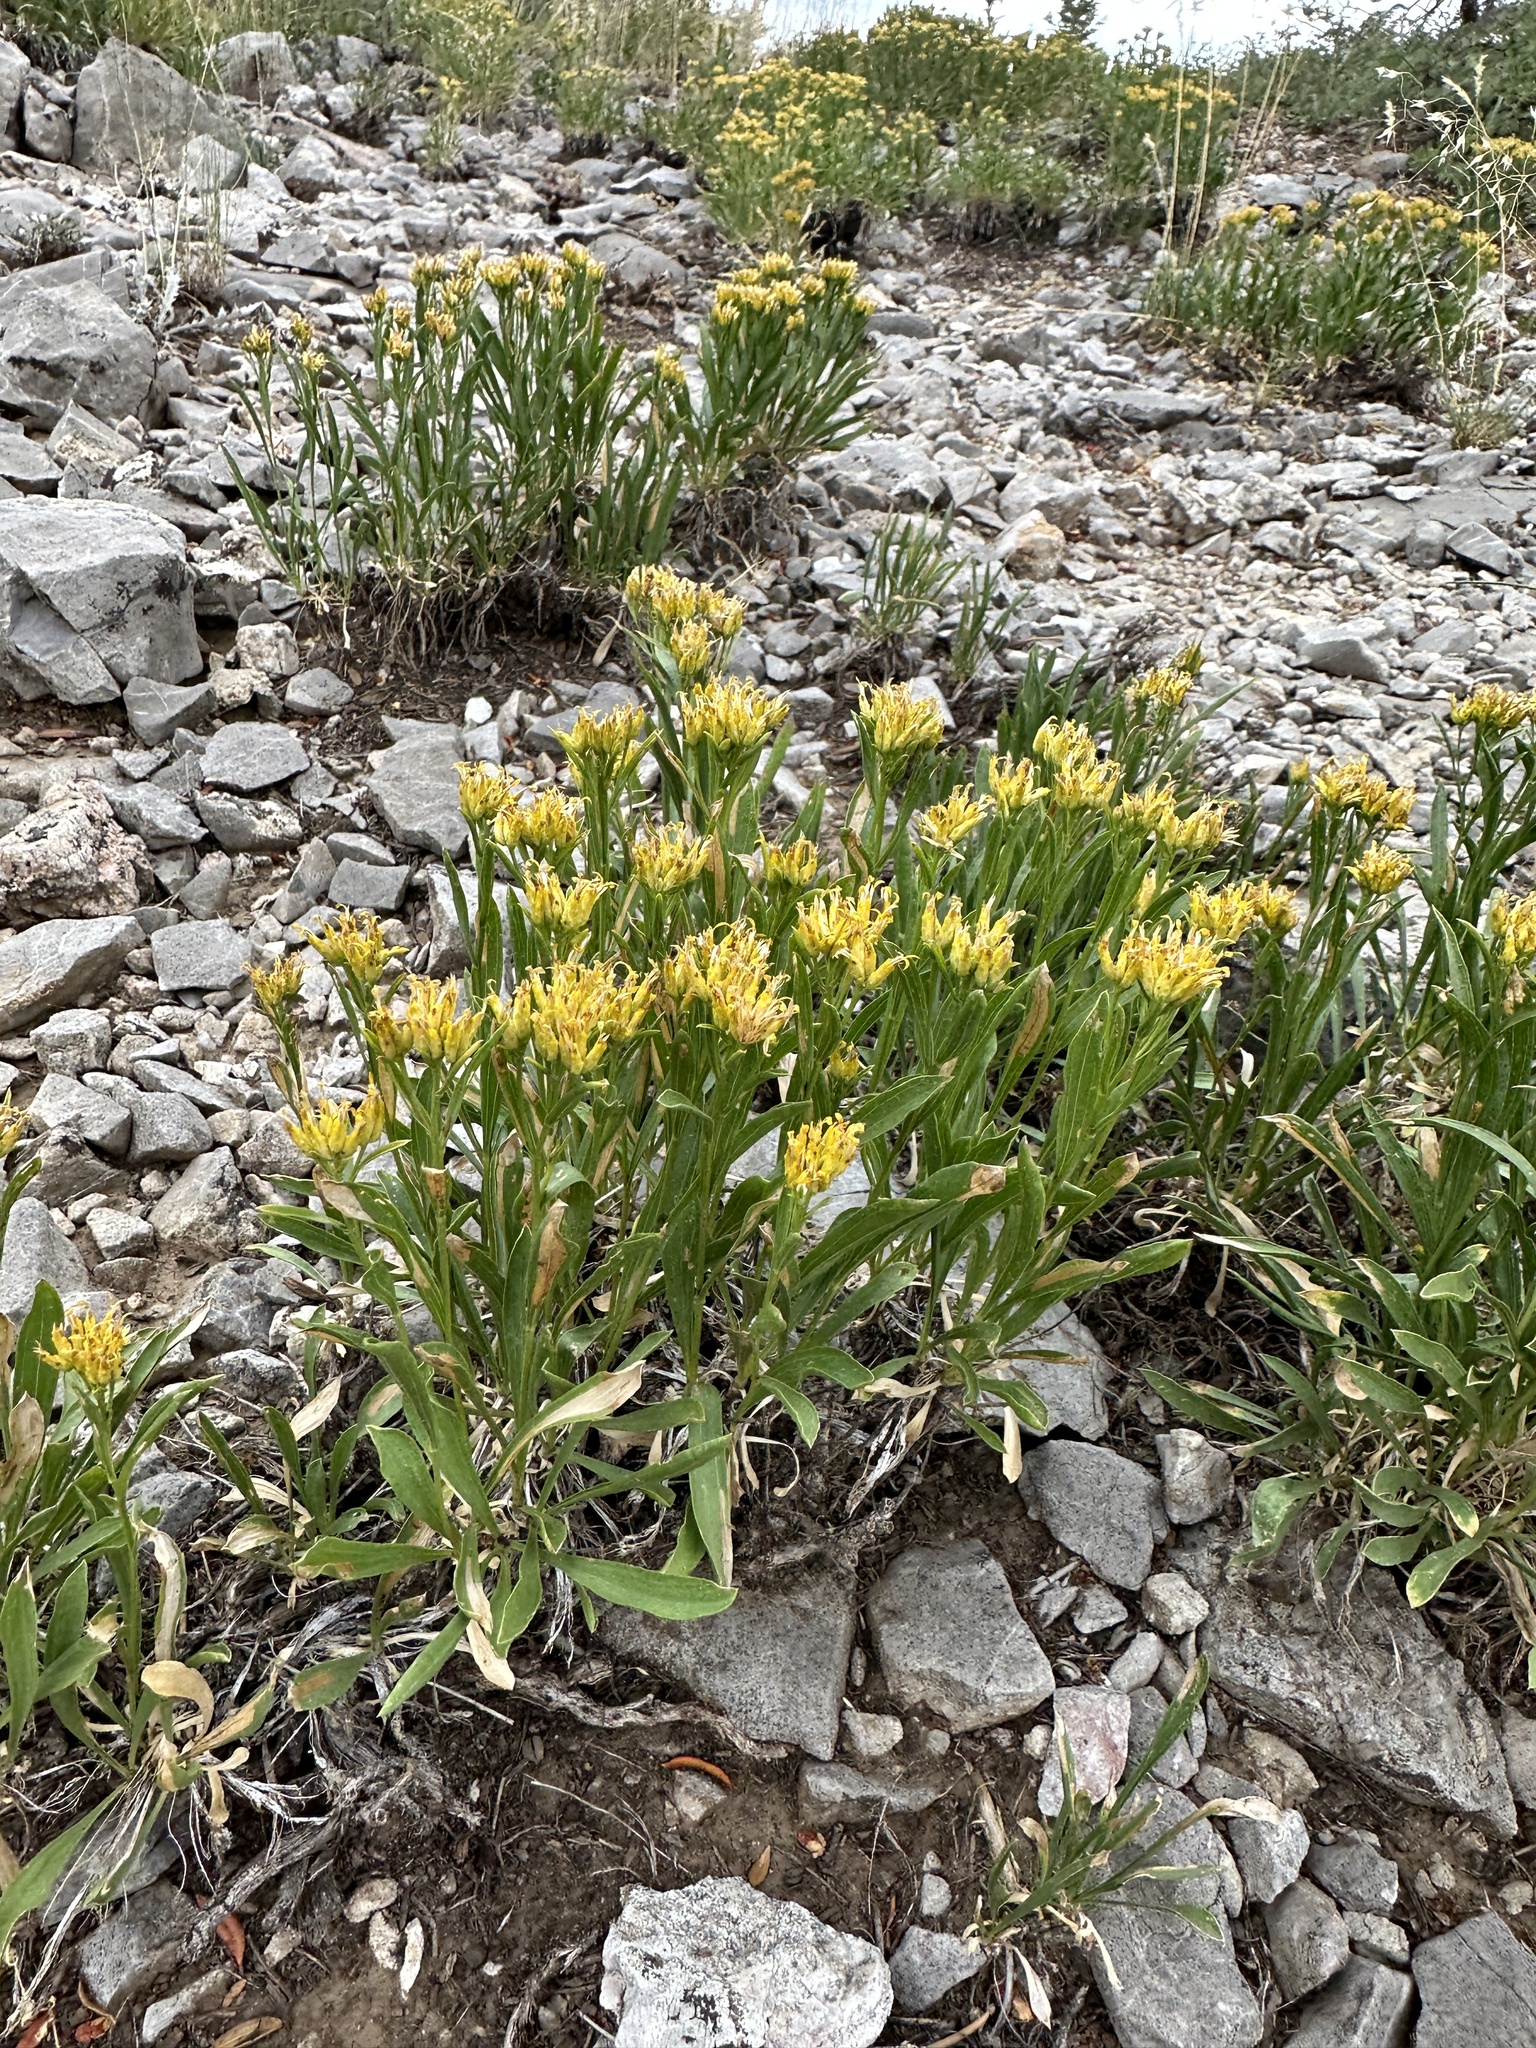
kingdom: Plantae
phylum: Tracheophyta
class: Magnoliopsida
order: Asterales
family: Asteraceae
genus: Petradoria
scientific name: Petradoria pumila
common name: Rock-goldenrod
